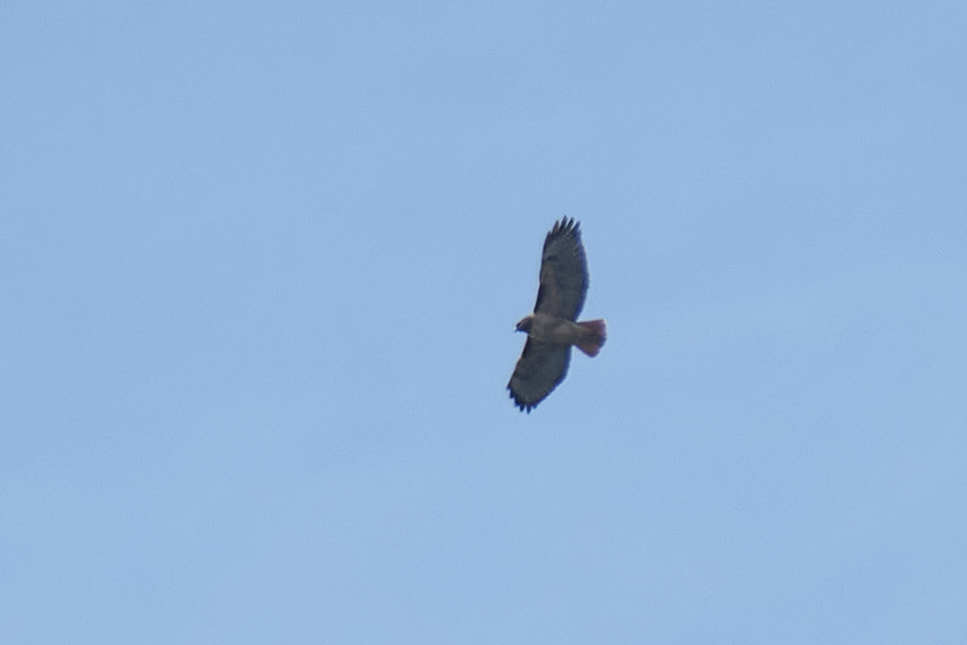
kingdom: Animalia
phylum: Chordata
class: Aves
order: Accipitriformes
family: Accipitridae
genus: Buteo
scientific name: Buteo jamaicensis
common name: Red-tailed hawk
